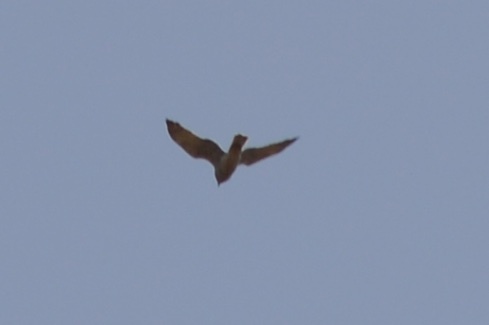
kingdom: Animalia
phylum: Chordata
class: Aves
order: Accipitriformes
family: Accipitridae
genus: Circus
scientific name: Circus approximans
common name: Swamp harrier
